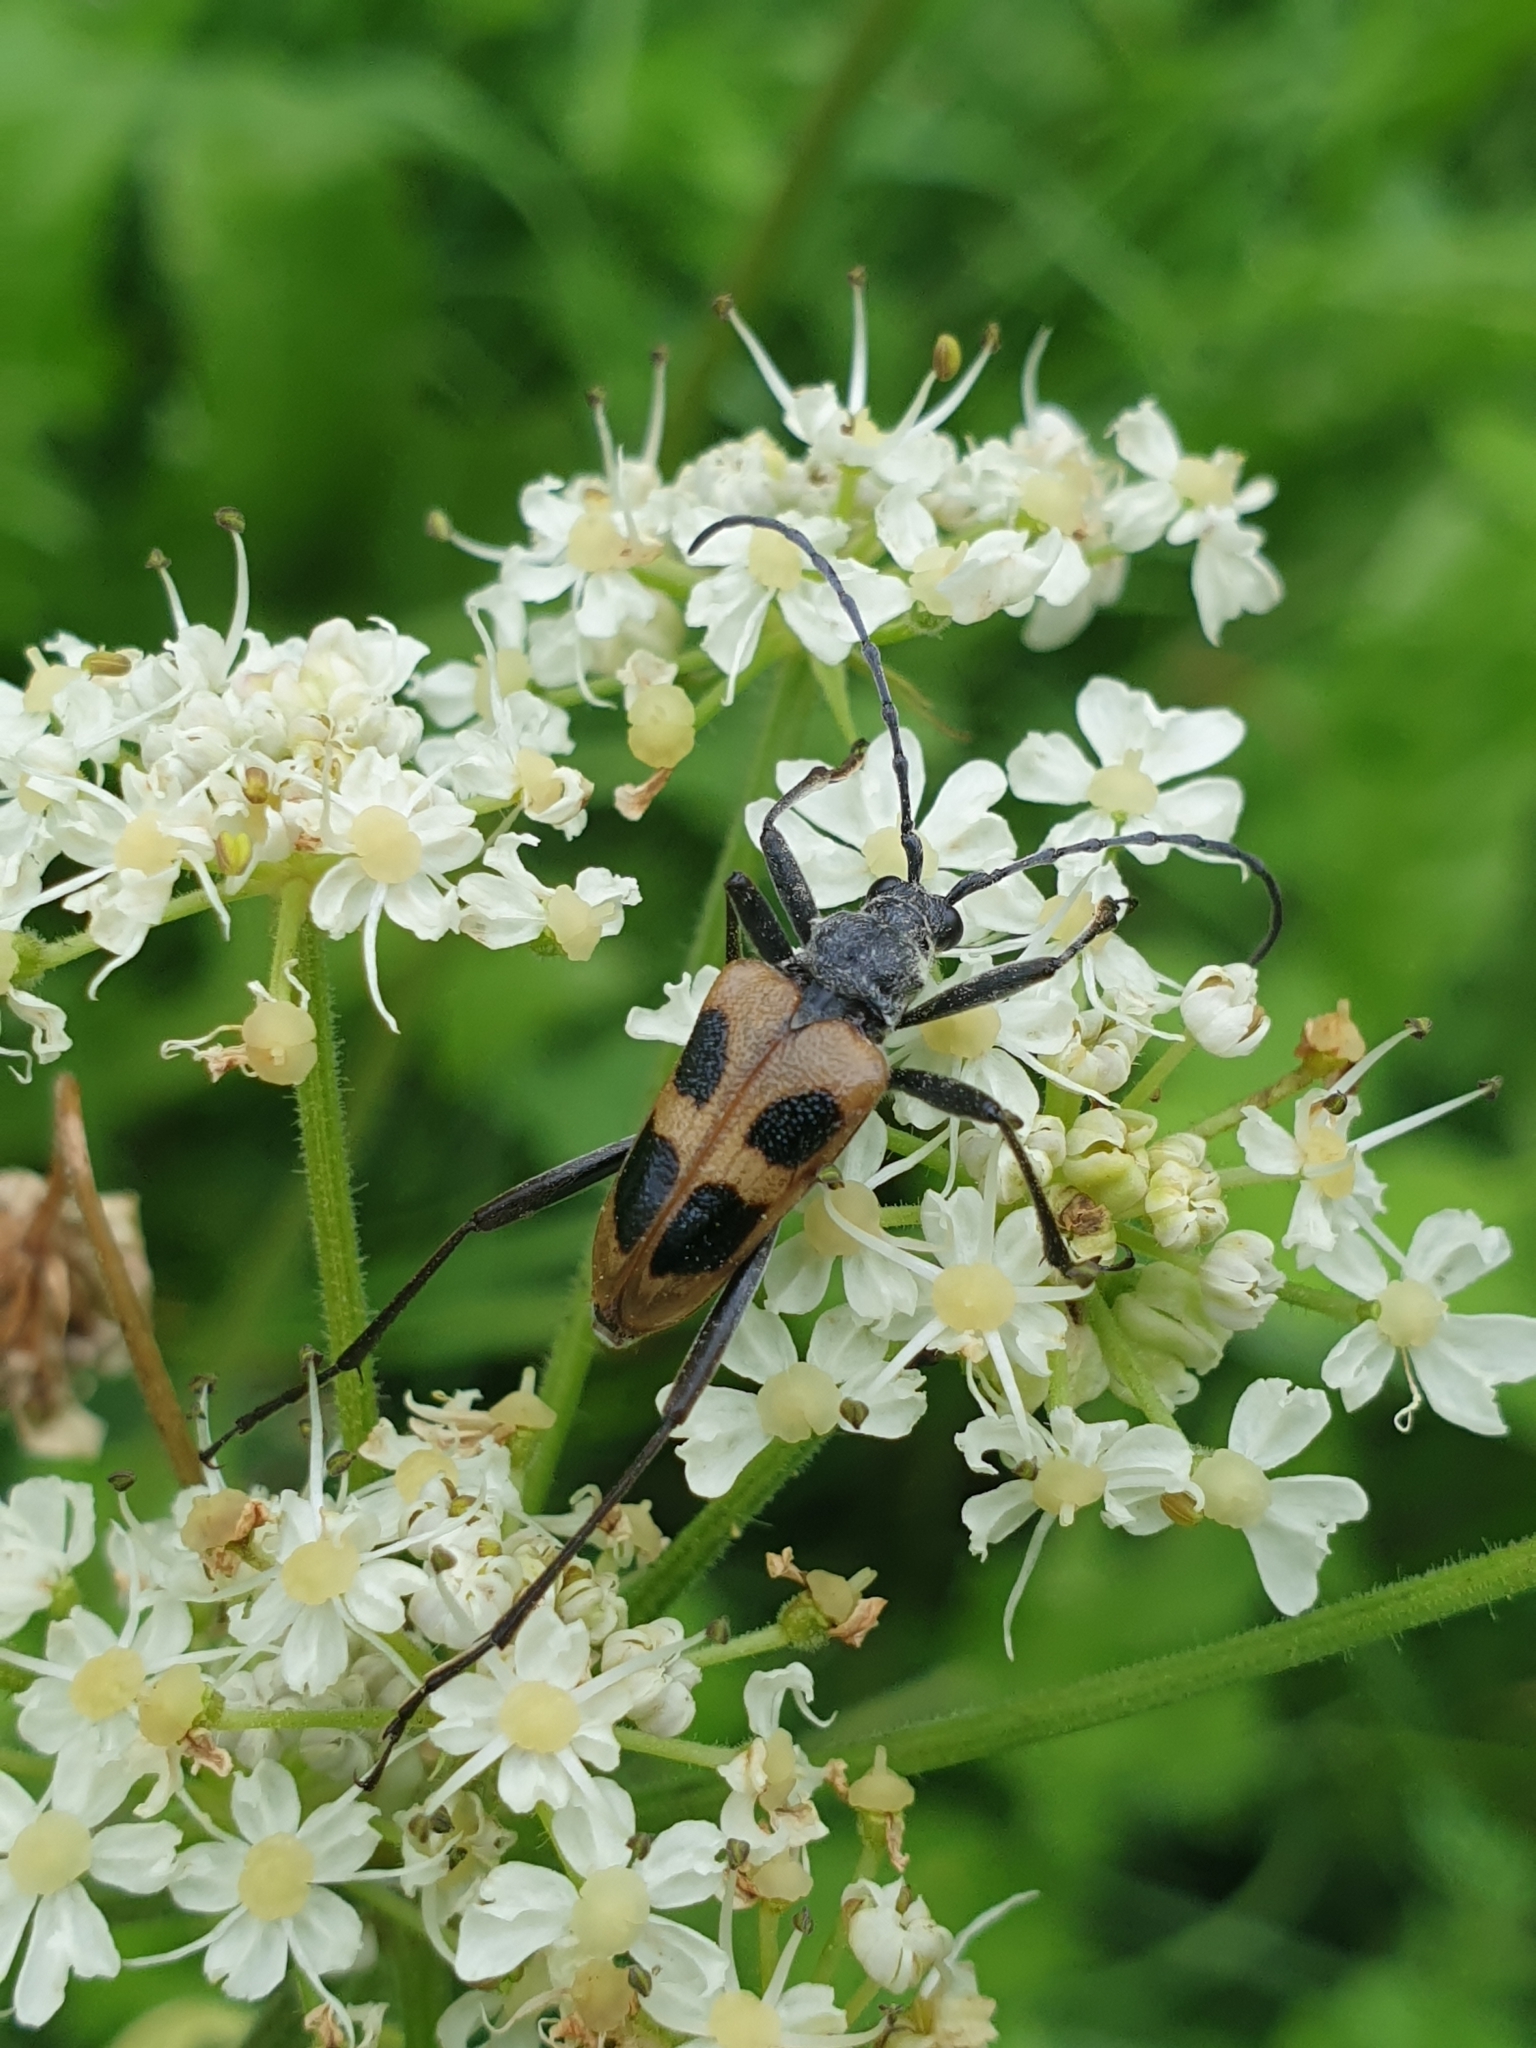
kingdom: Animalia
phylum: Arthropoda
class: Insecta
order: Coleoptera
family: Cerambycidae
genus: Pachyta
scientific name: Pachyta quadrimaculata
